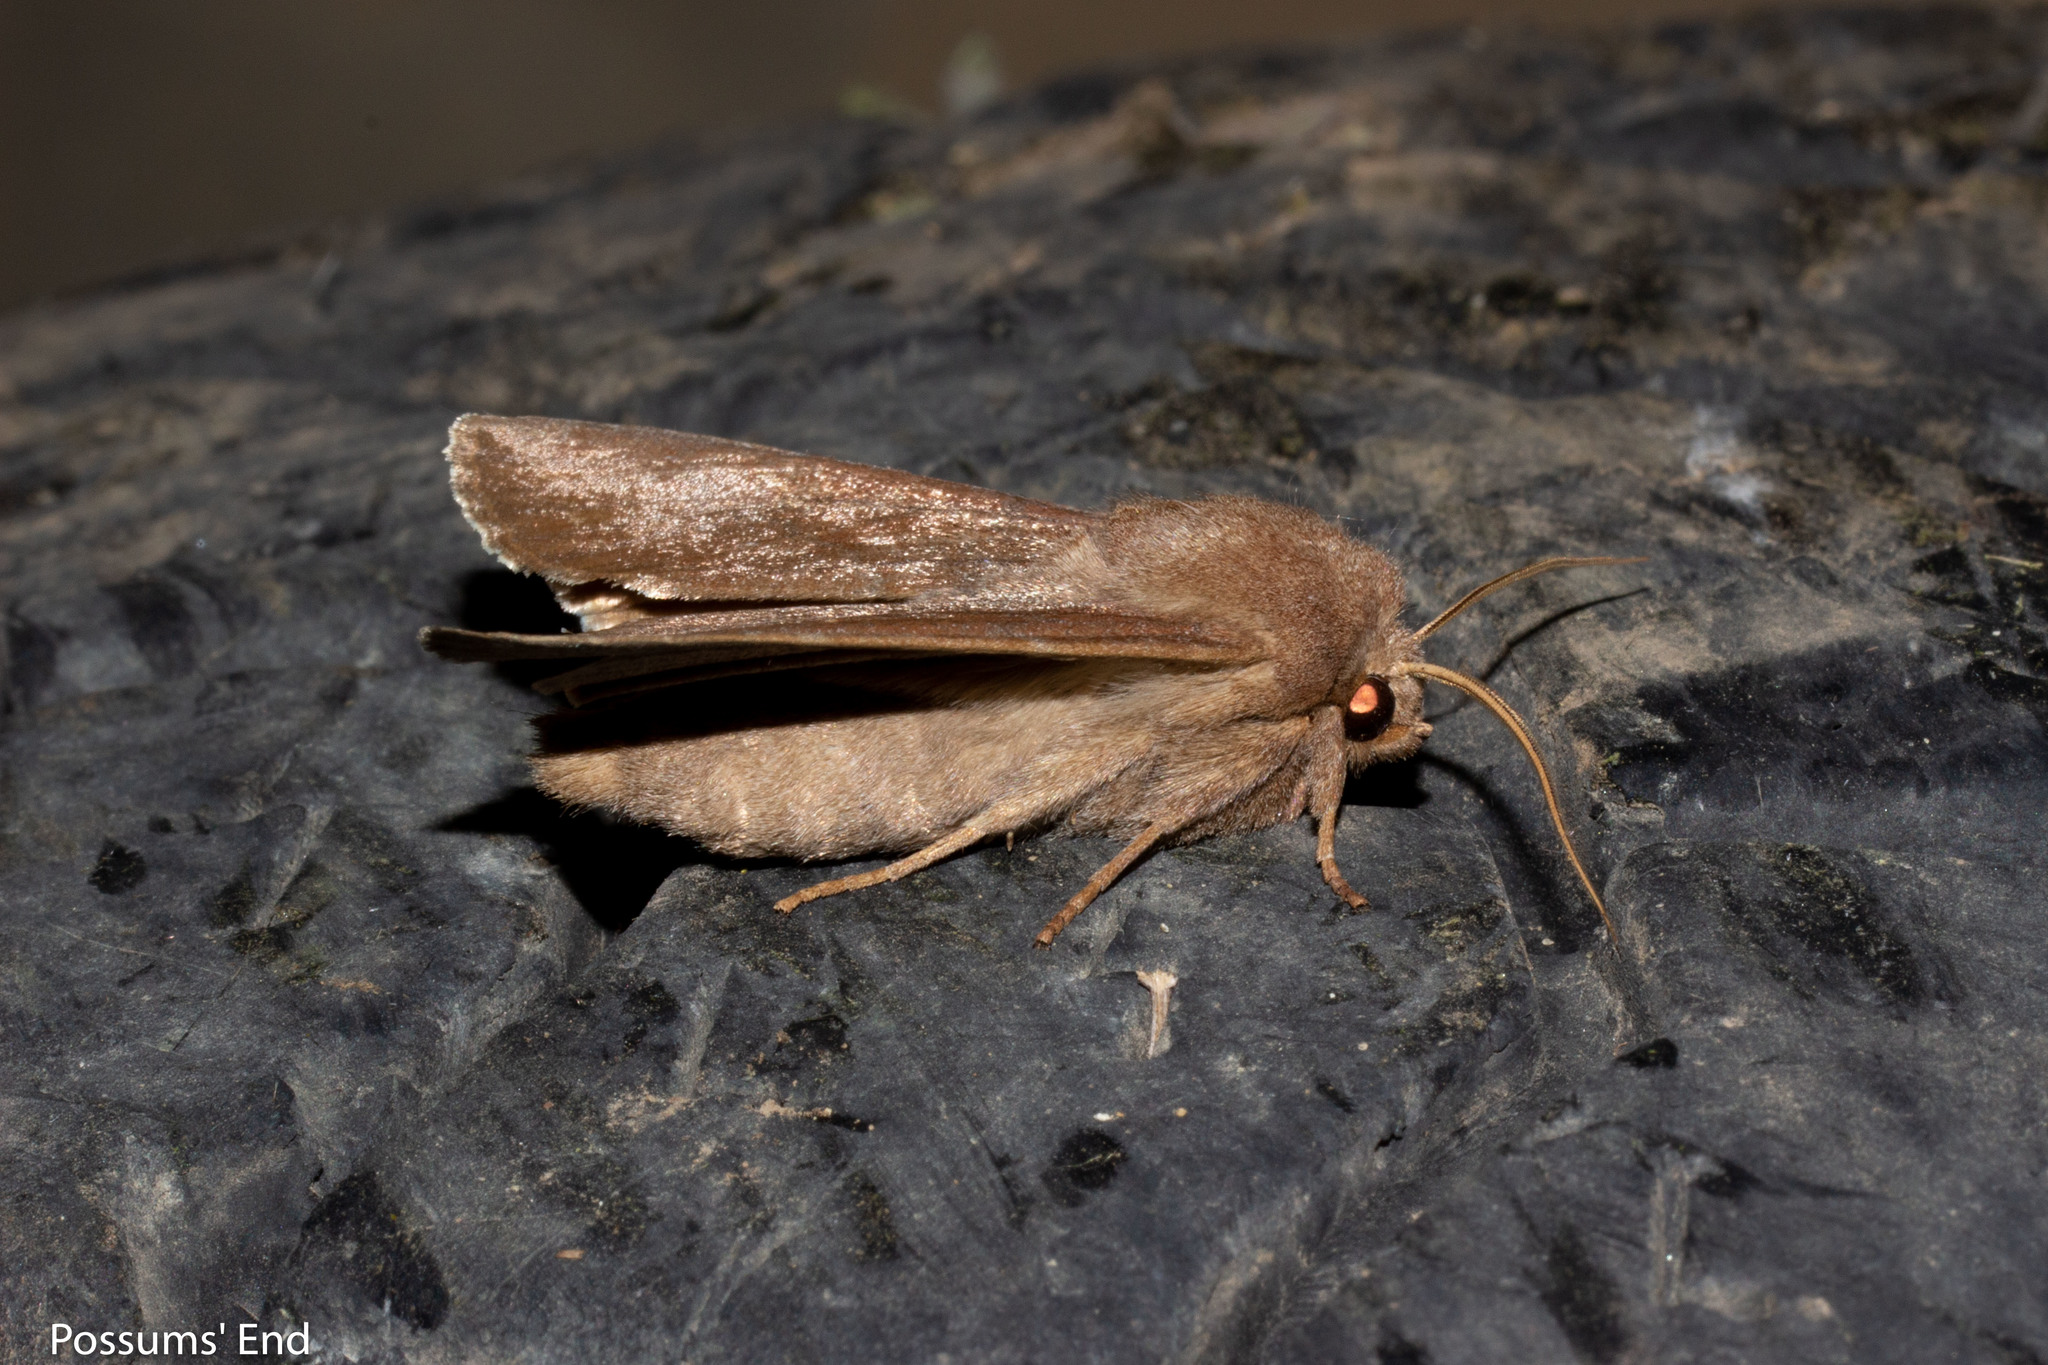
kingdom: Animalia
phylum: Arthropoda
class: Insecta
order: Lepidoptera
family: Noctuidae
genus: Ichneutica
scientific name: Ichneutica nullifera
